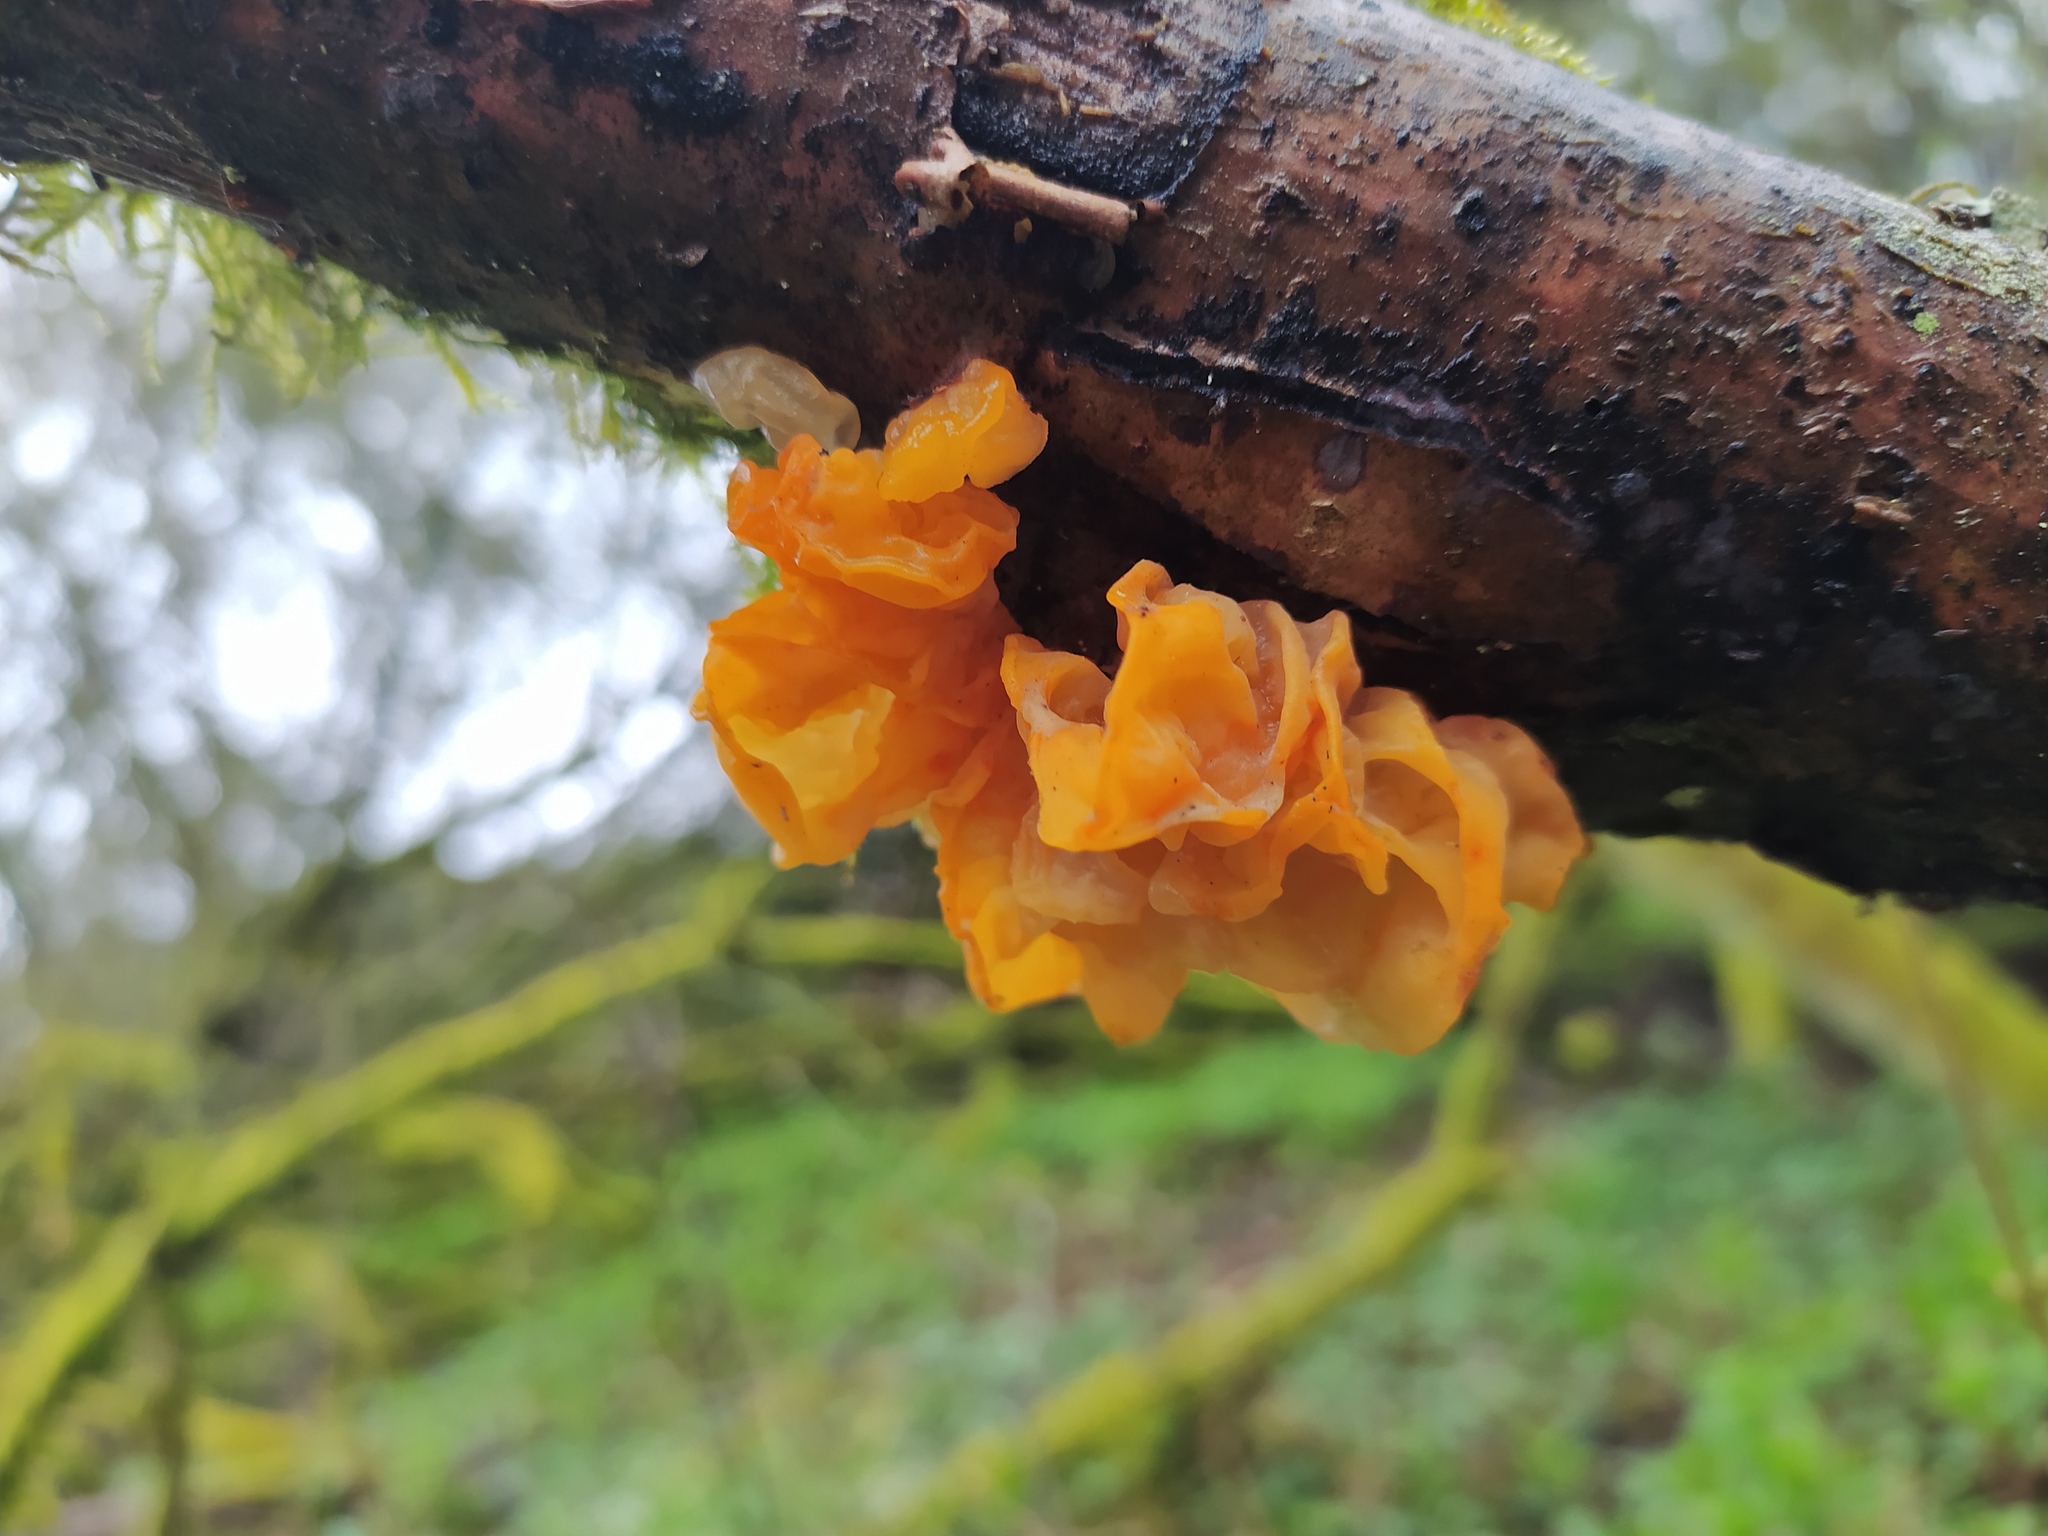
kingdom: Fungi
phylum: Basidiomycota
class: Tremellomycetes
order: Tremellales
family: Tremellaceae
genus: Tremella
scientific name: Tremella mesenterica
